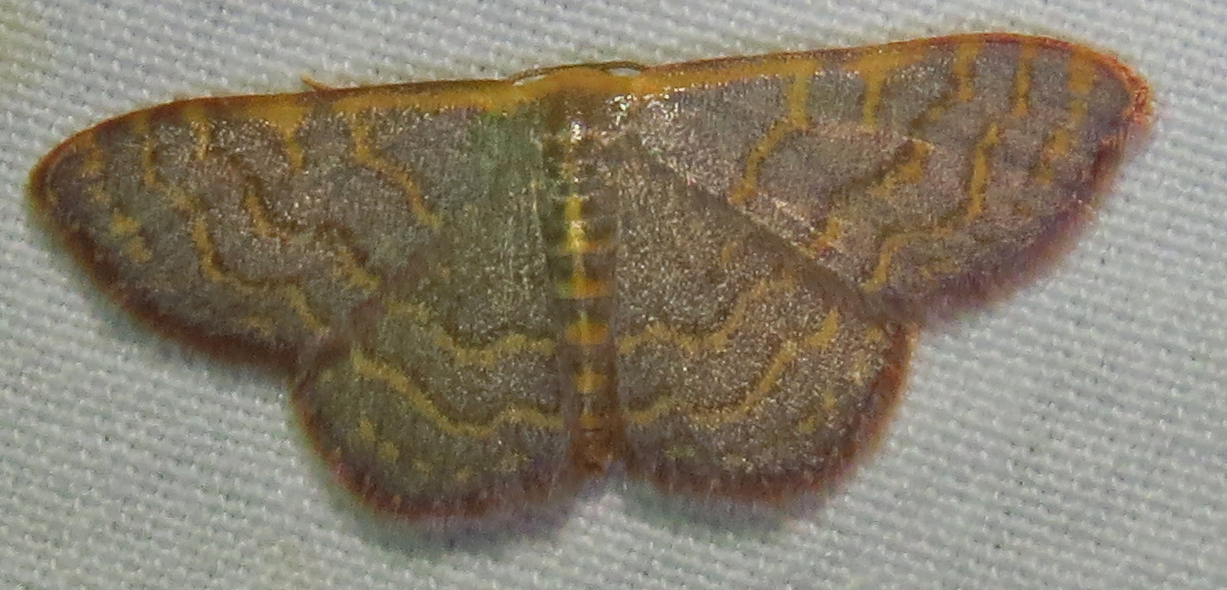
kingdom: Animalia
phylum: Arthropoda
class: Insecta
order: Lepidoptera
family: Geometridae
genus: Leptostales
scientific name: Leptostales pannaria
